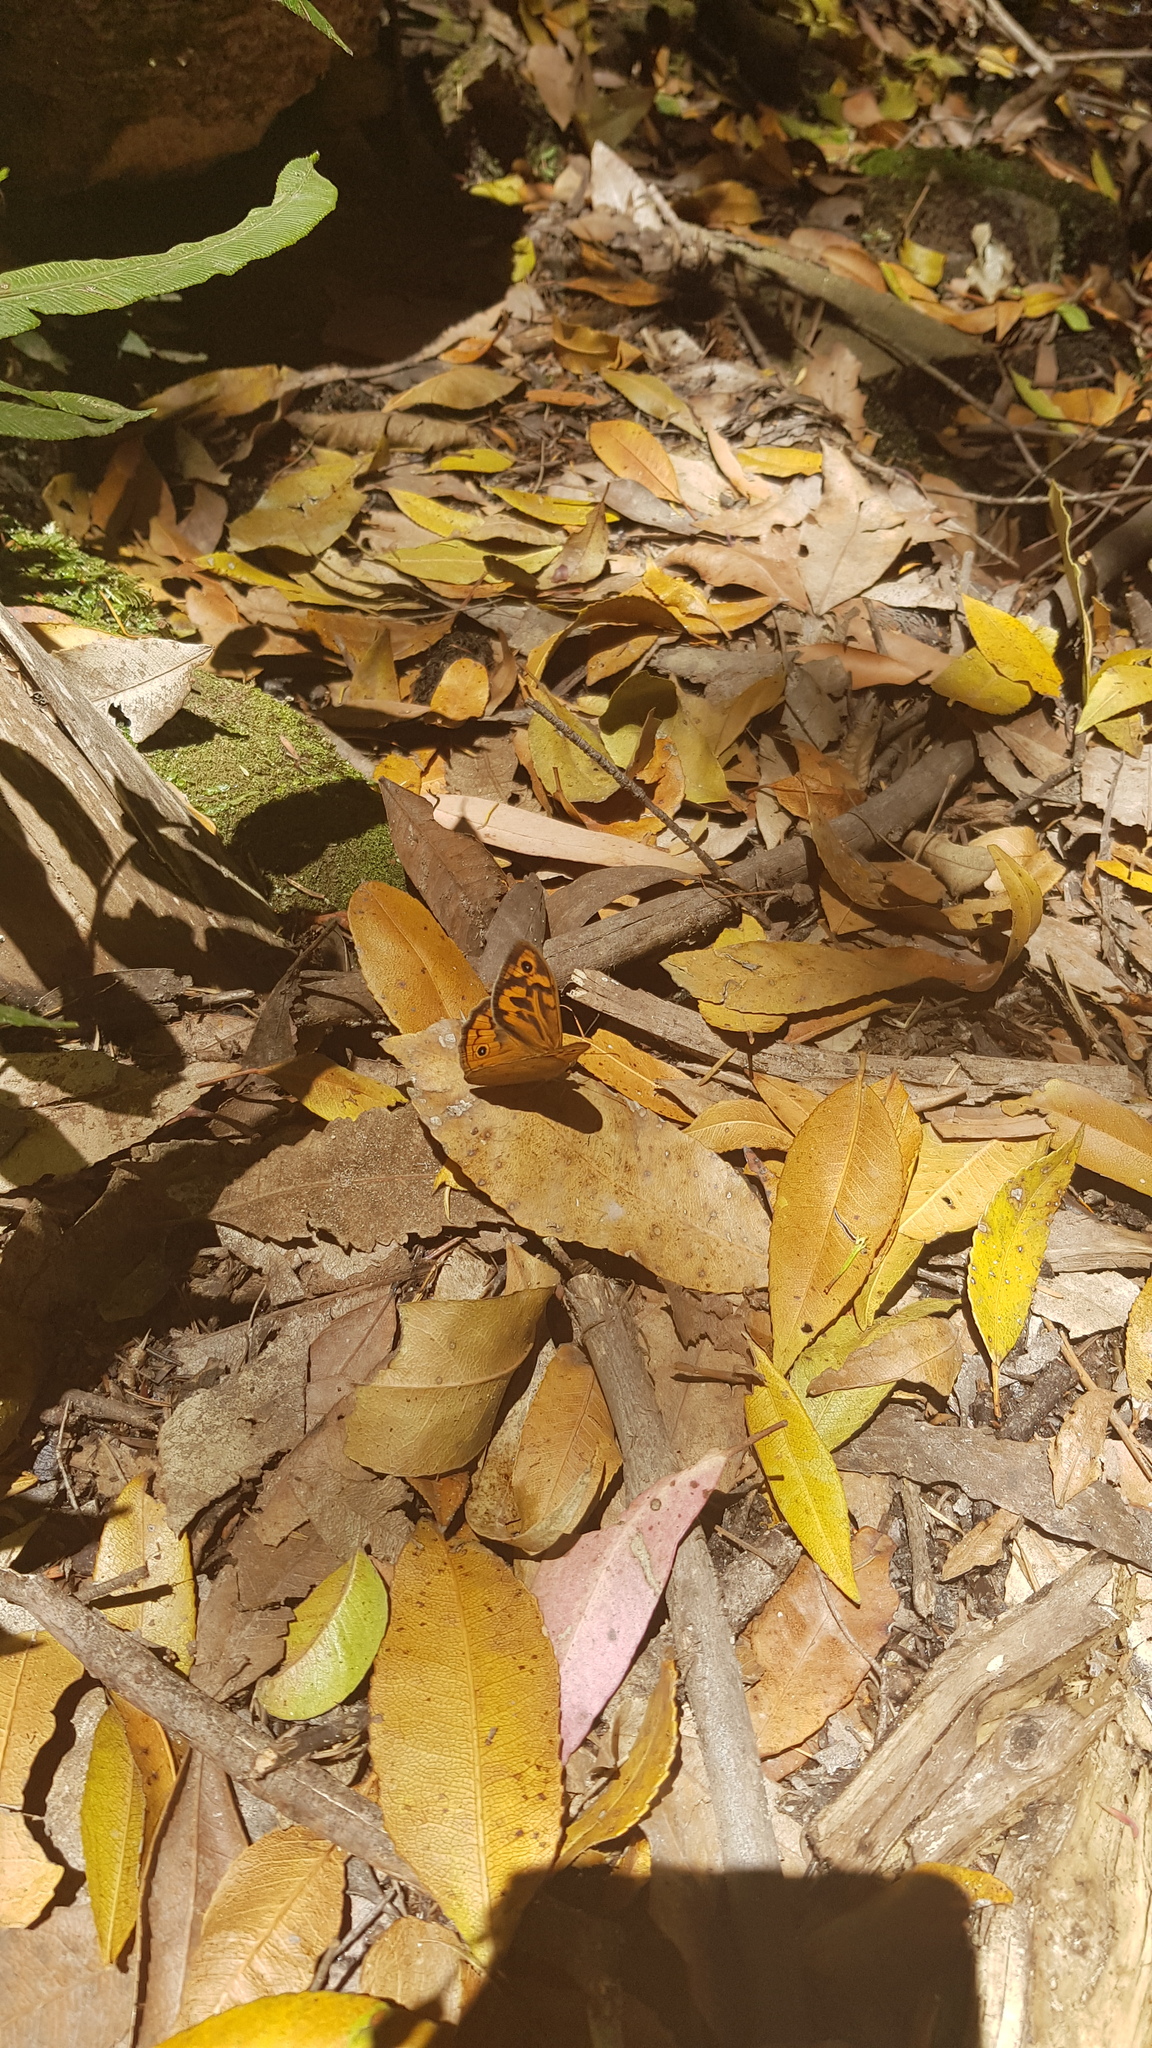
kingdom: Animalia
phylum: Arthropoda
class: Insecta
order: Lepidoptera
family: Nymphalidae
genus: Heteronympha
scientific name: Heteronympha merope
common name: Common brown
